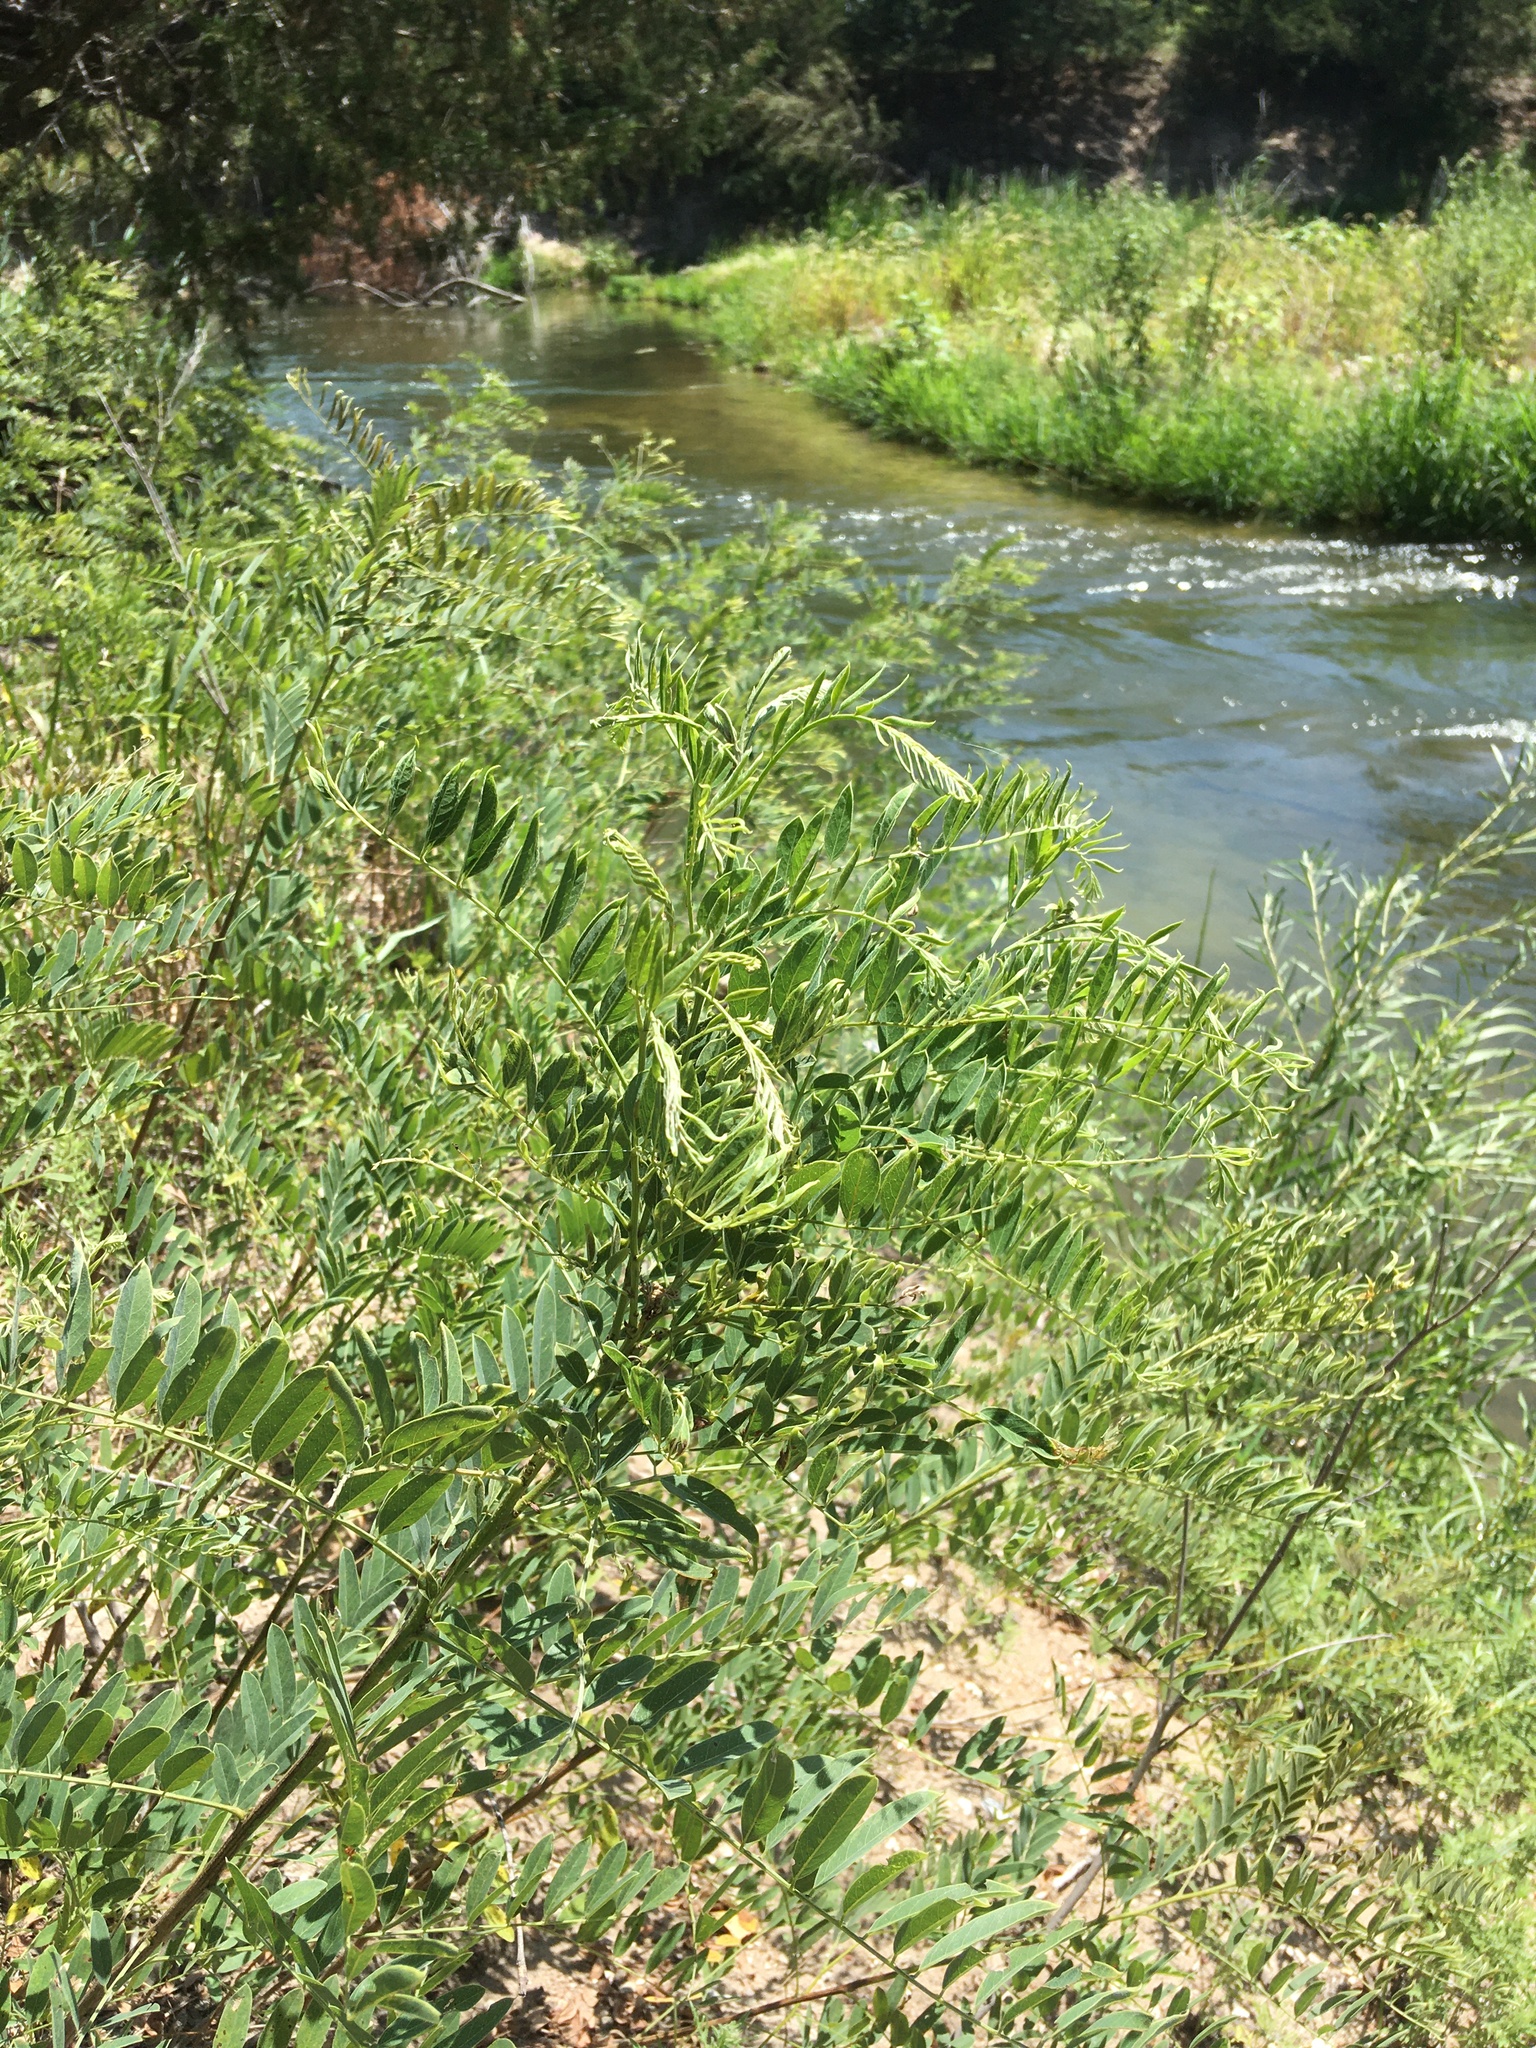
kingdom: Plantae
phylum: Tracheophyta
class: Magnoliopsida
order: Fabales
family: Fabaceae
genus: Amorpha
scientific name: Amorpha fruticosa
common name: False indigo
